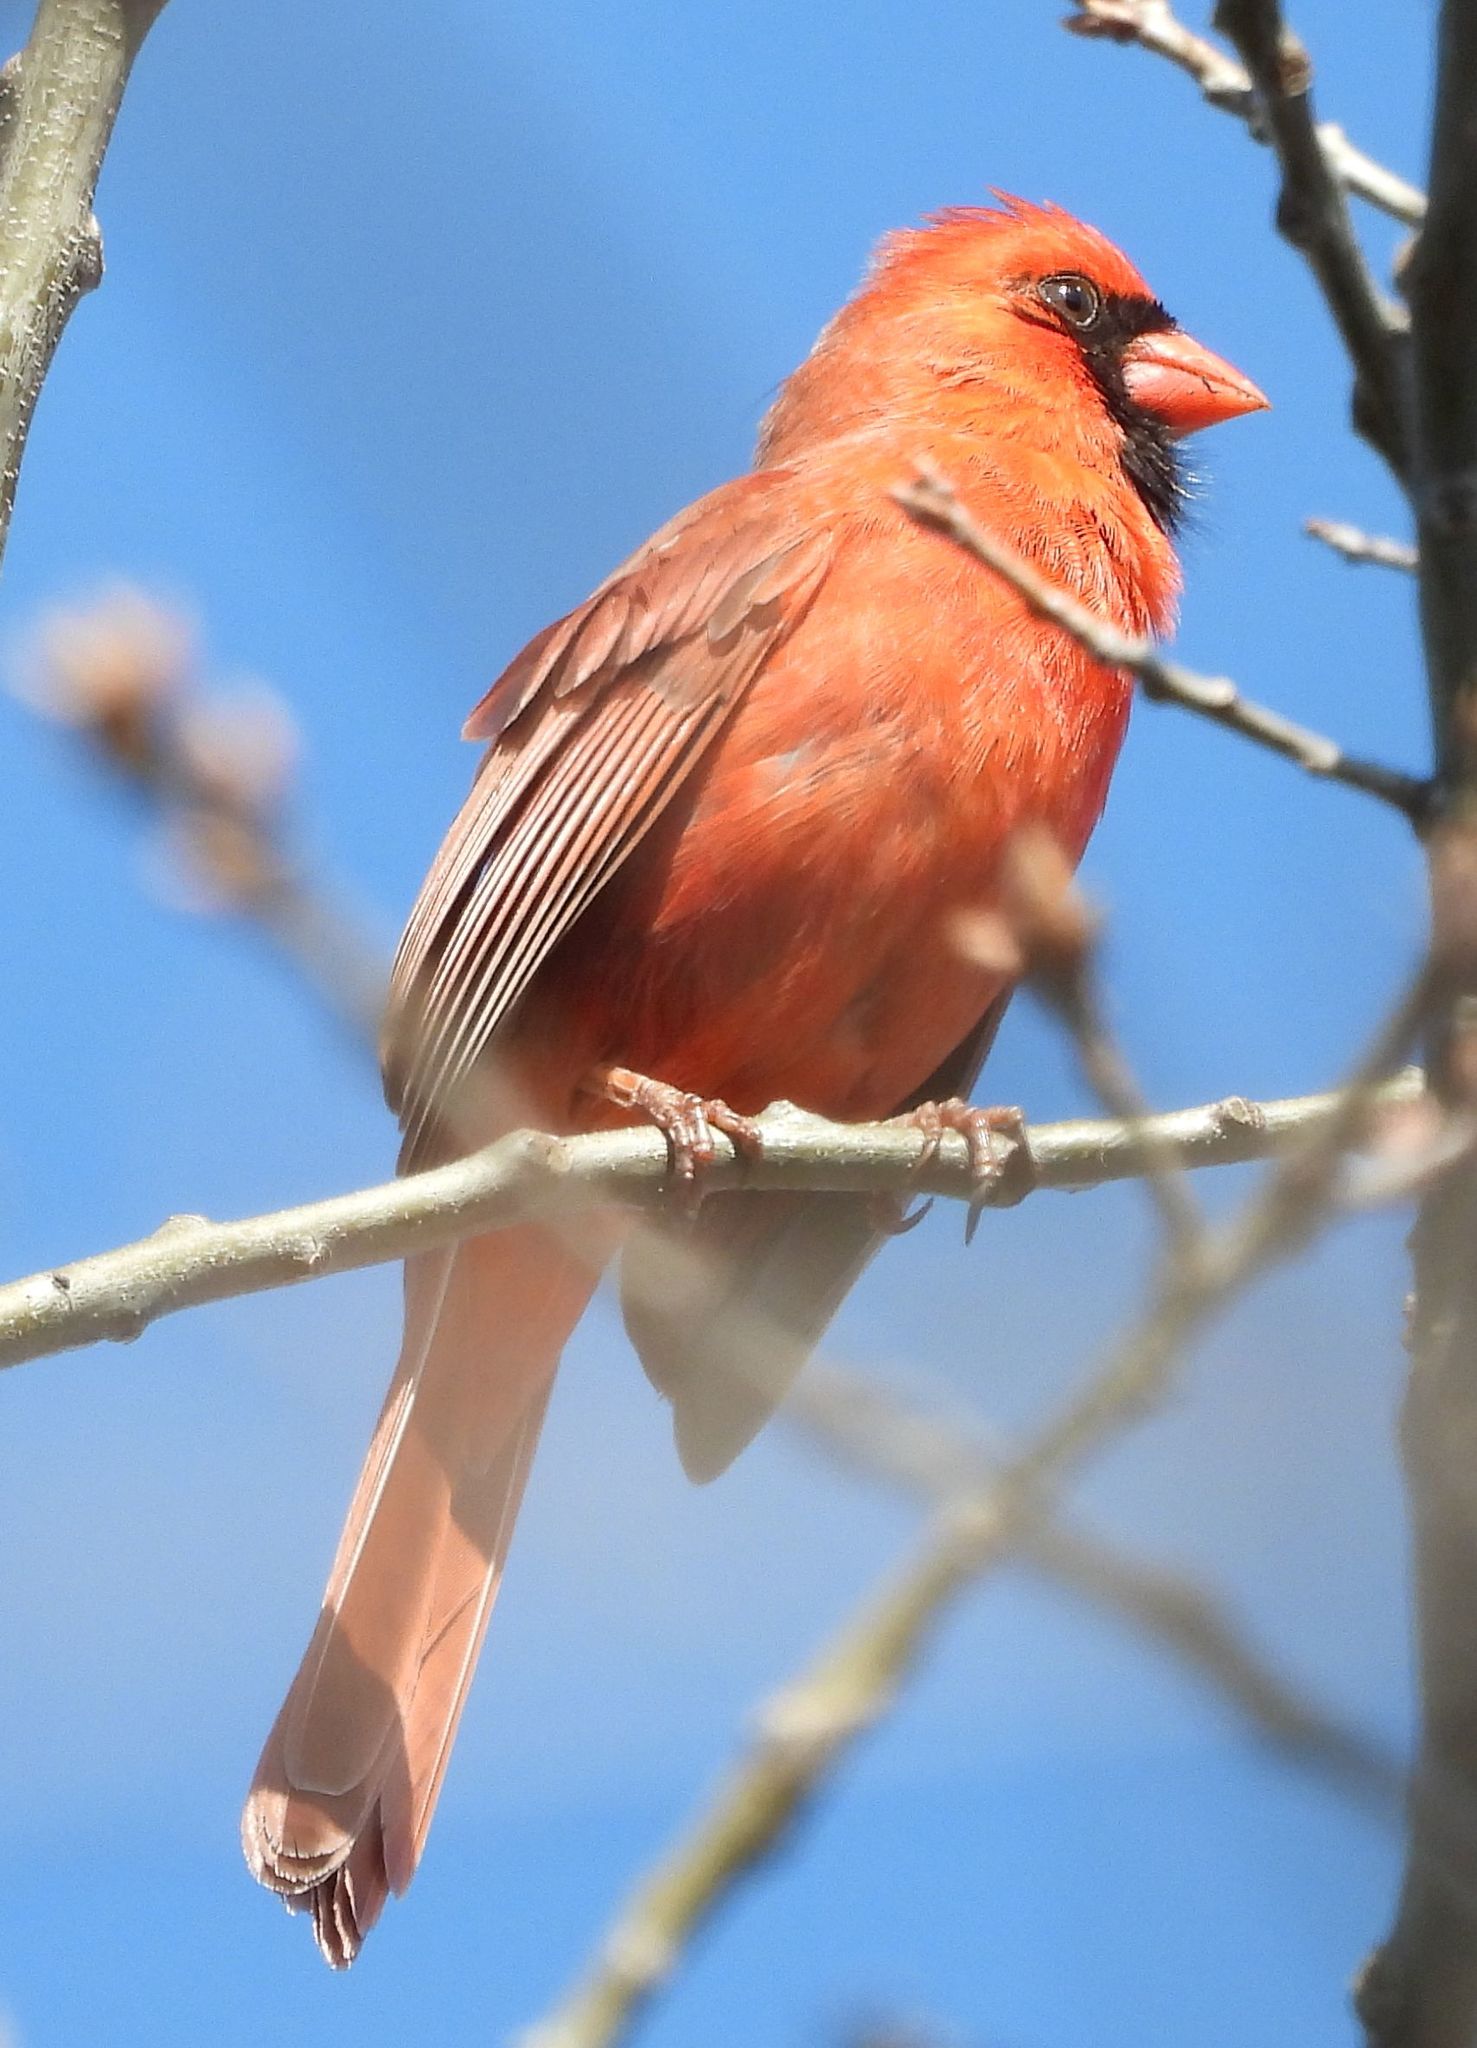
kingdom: Animalia
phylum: Chordata
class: Aves
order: Passeriformes
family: Cardinalidae
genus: Cardinalis
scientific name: Cardinalis cardinalis
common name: Northern cardinal
